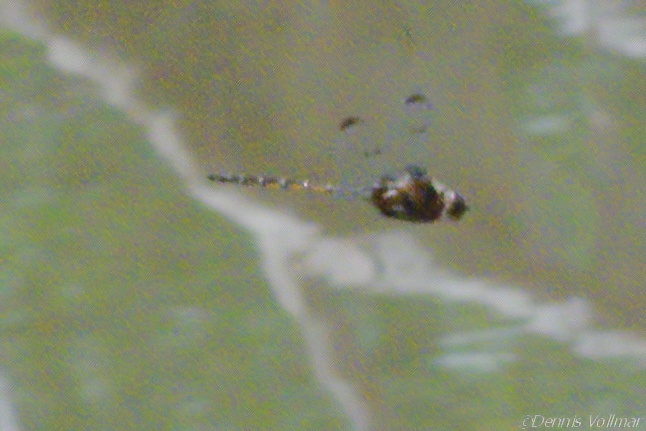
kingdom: Animalia
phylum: Arthropoda
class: Insecta
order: Odonata
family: Corduliidae
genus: Epitheca
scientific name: Epitheca princeps
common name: Prince baskettail
